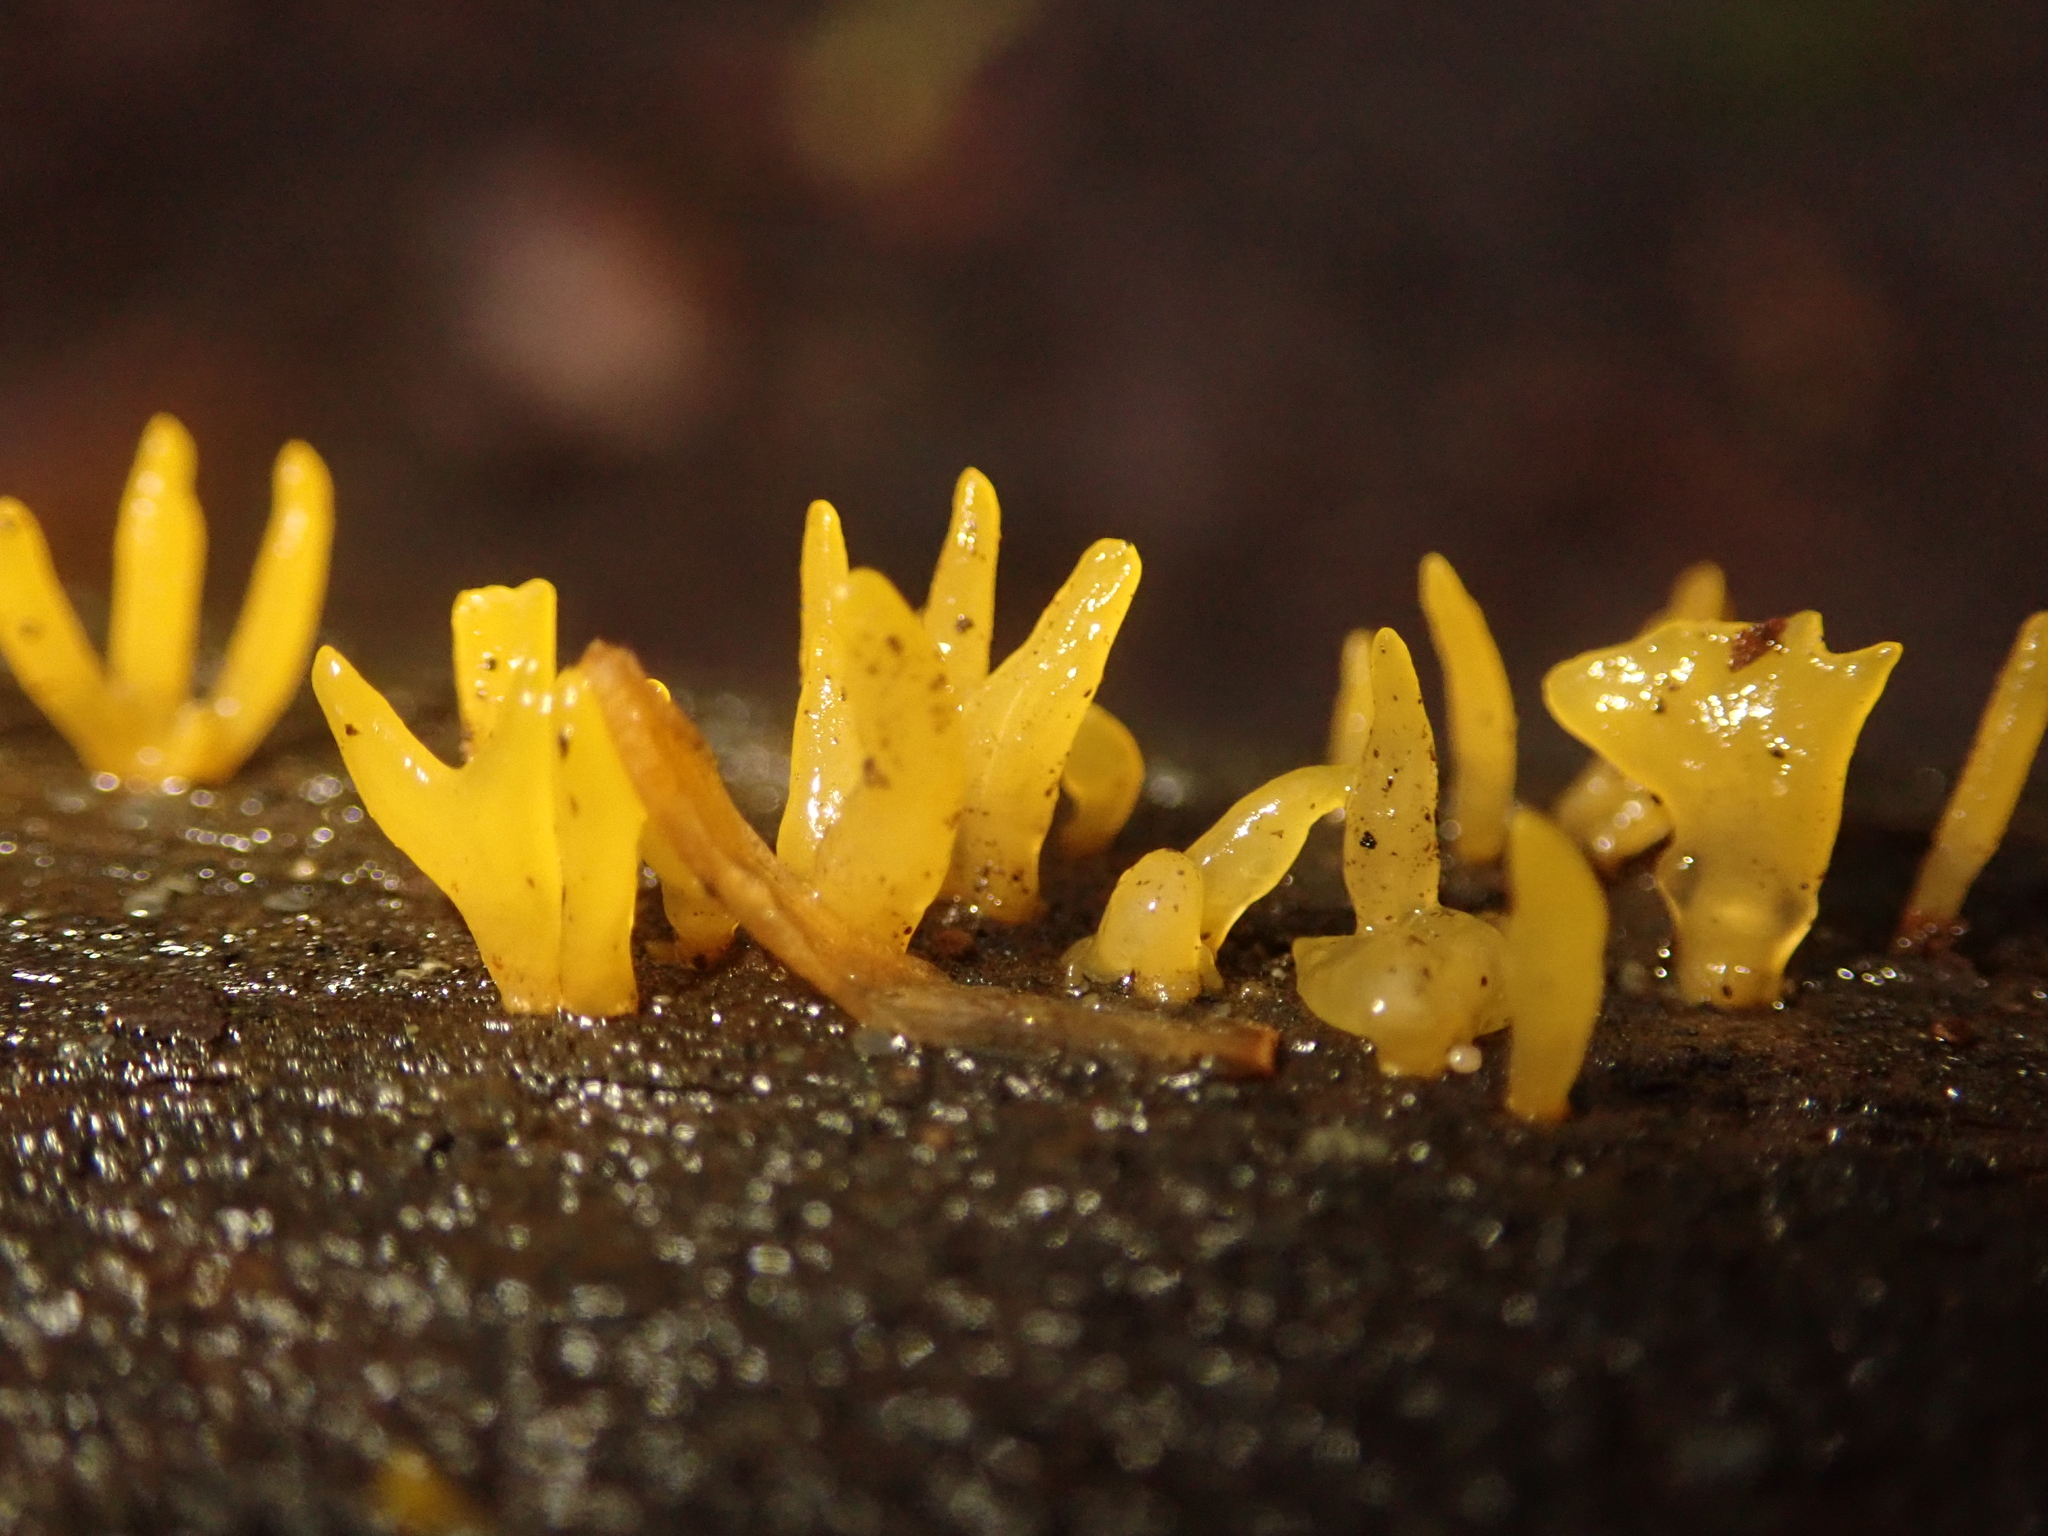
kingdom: Fungi
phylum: Basidiomycota
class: Dacrymycetes
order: Dacrymycetales
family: Dacrymycetaceae
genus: Calocera
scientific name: Calocera cornea
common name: Small stagshorn
